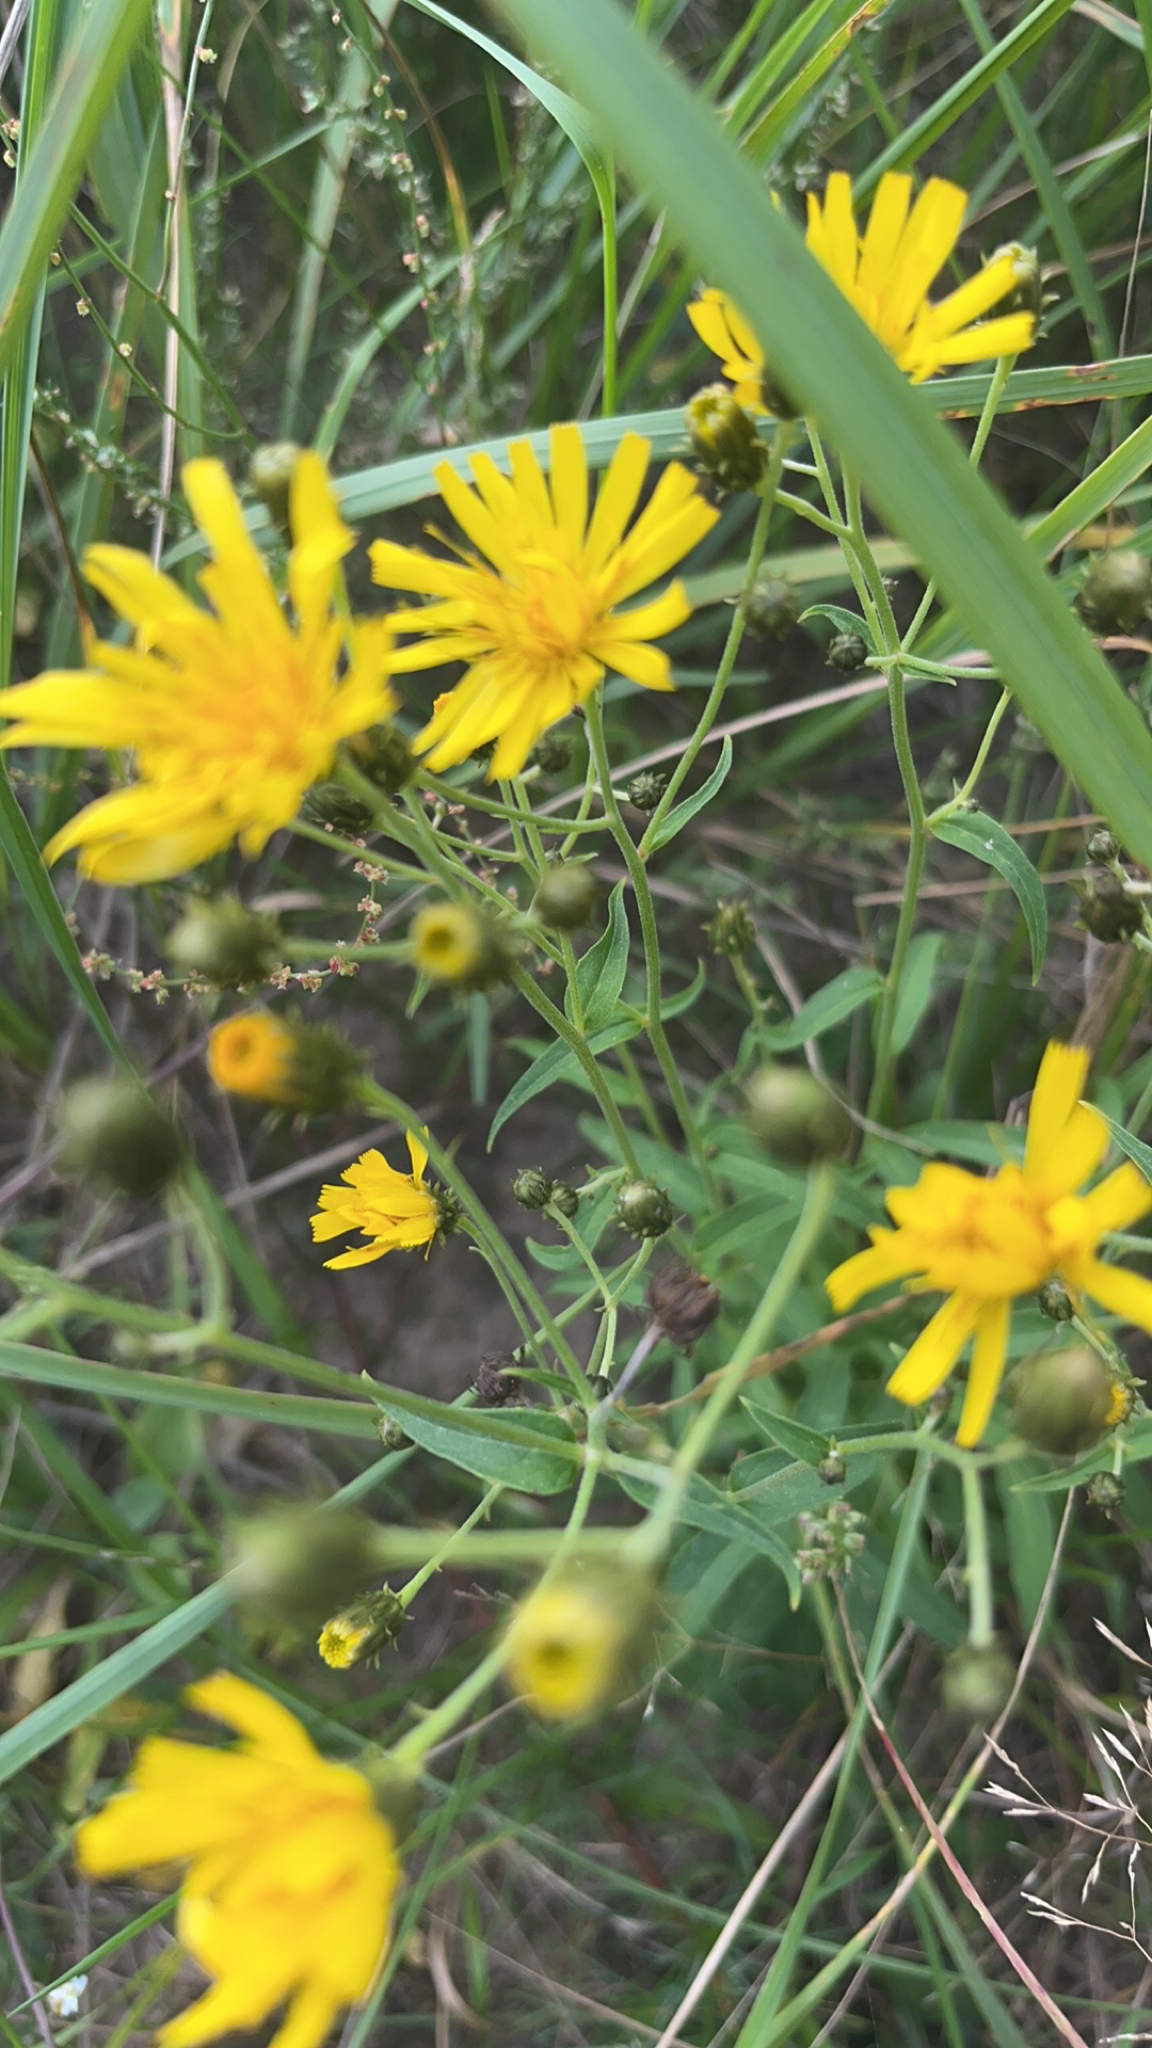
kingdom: Plantae
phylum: Tracheophyta
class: Magnoliopsida
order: Asterales
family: Asteraceae
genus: Hieracium
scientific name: Hieracium umbellatum
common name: Northern hawkweed
